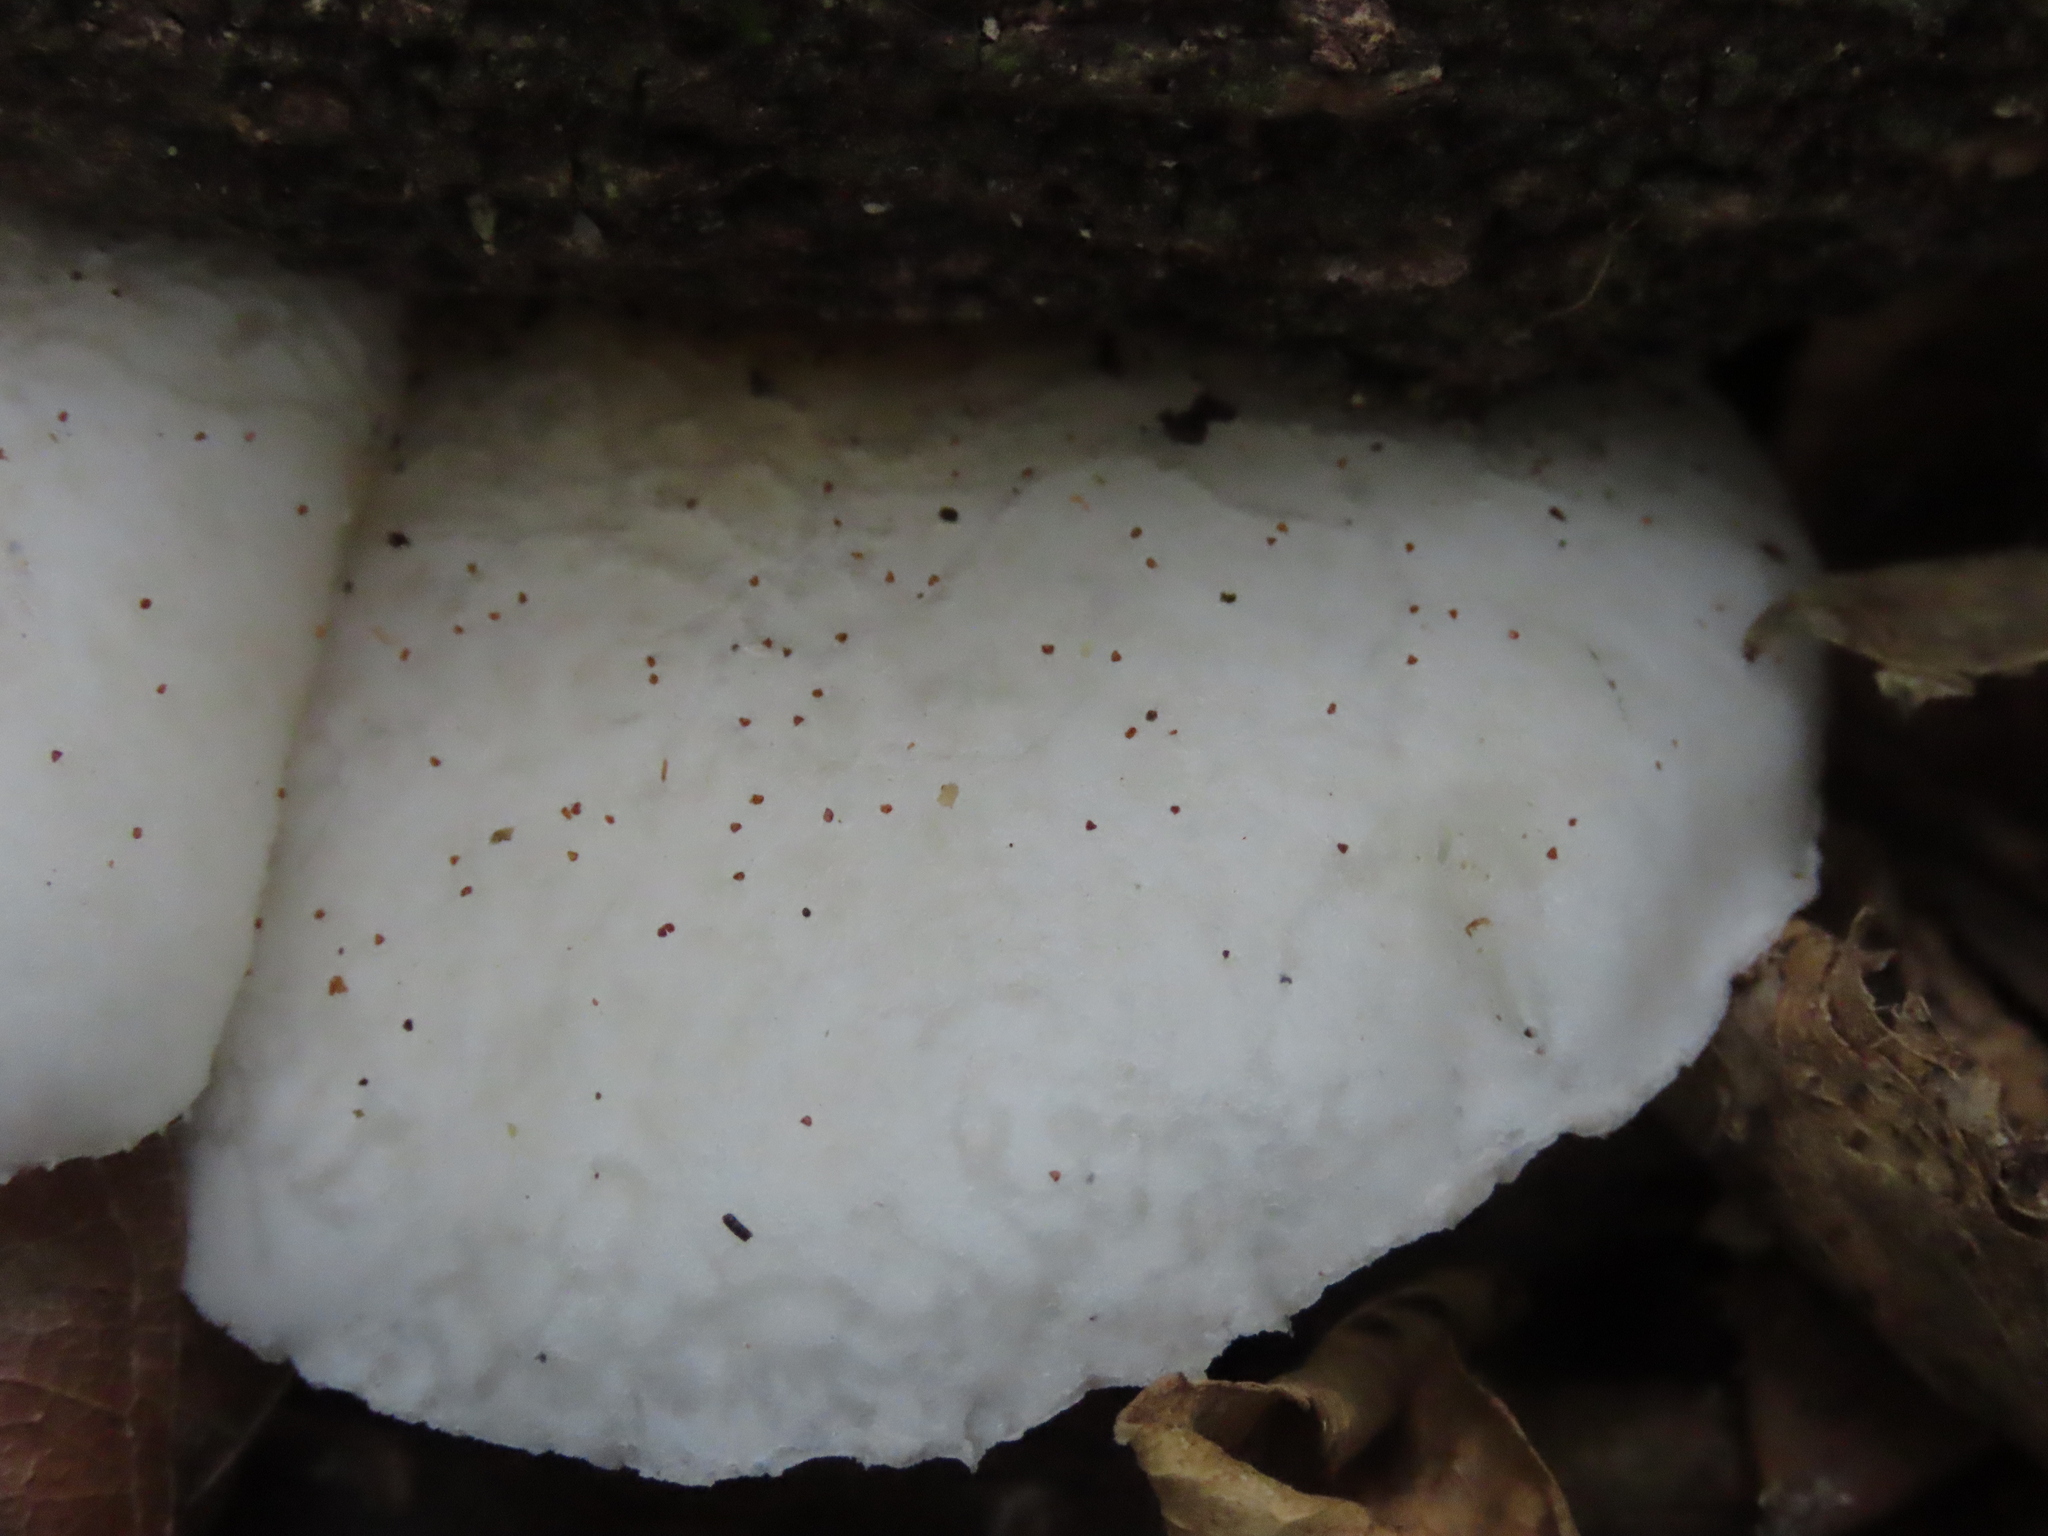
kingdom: Fungi
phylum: Basidiomycota
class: Agaricomycetes
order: Agaricales
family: Physalacriaceae
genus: Oudemansiella
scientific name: Oudemansiella australis
